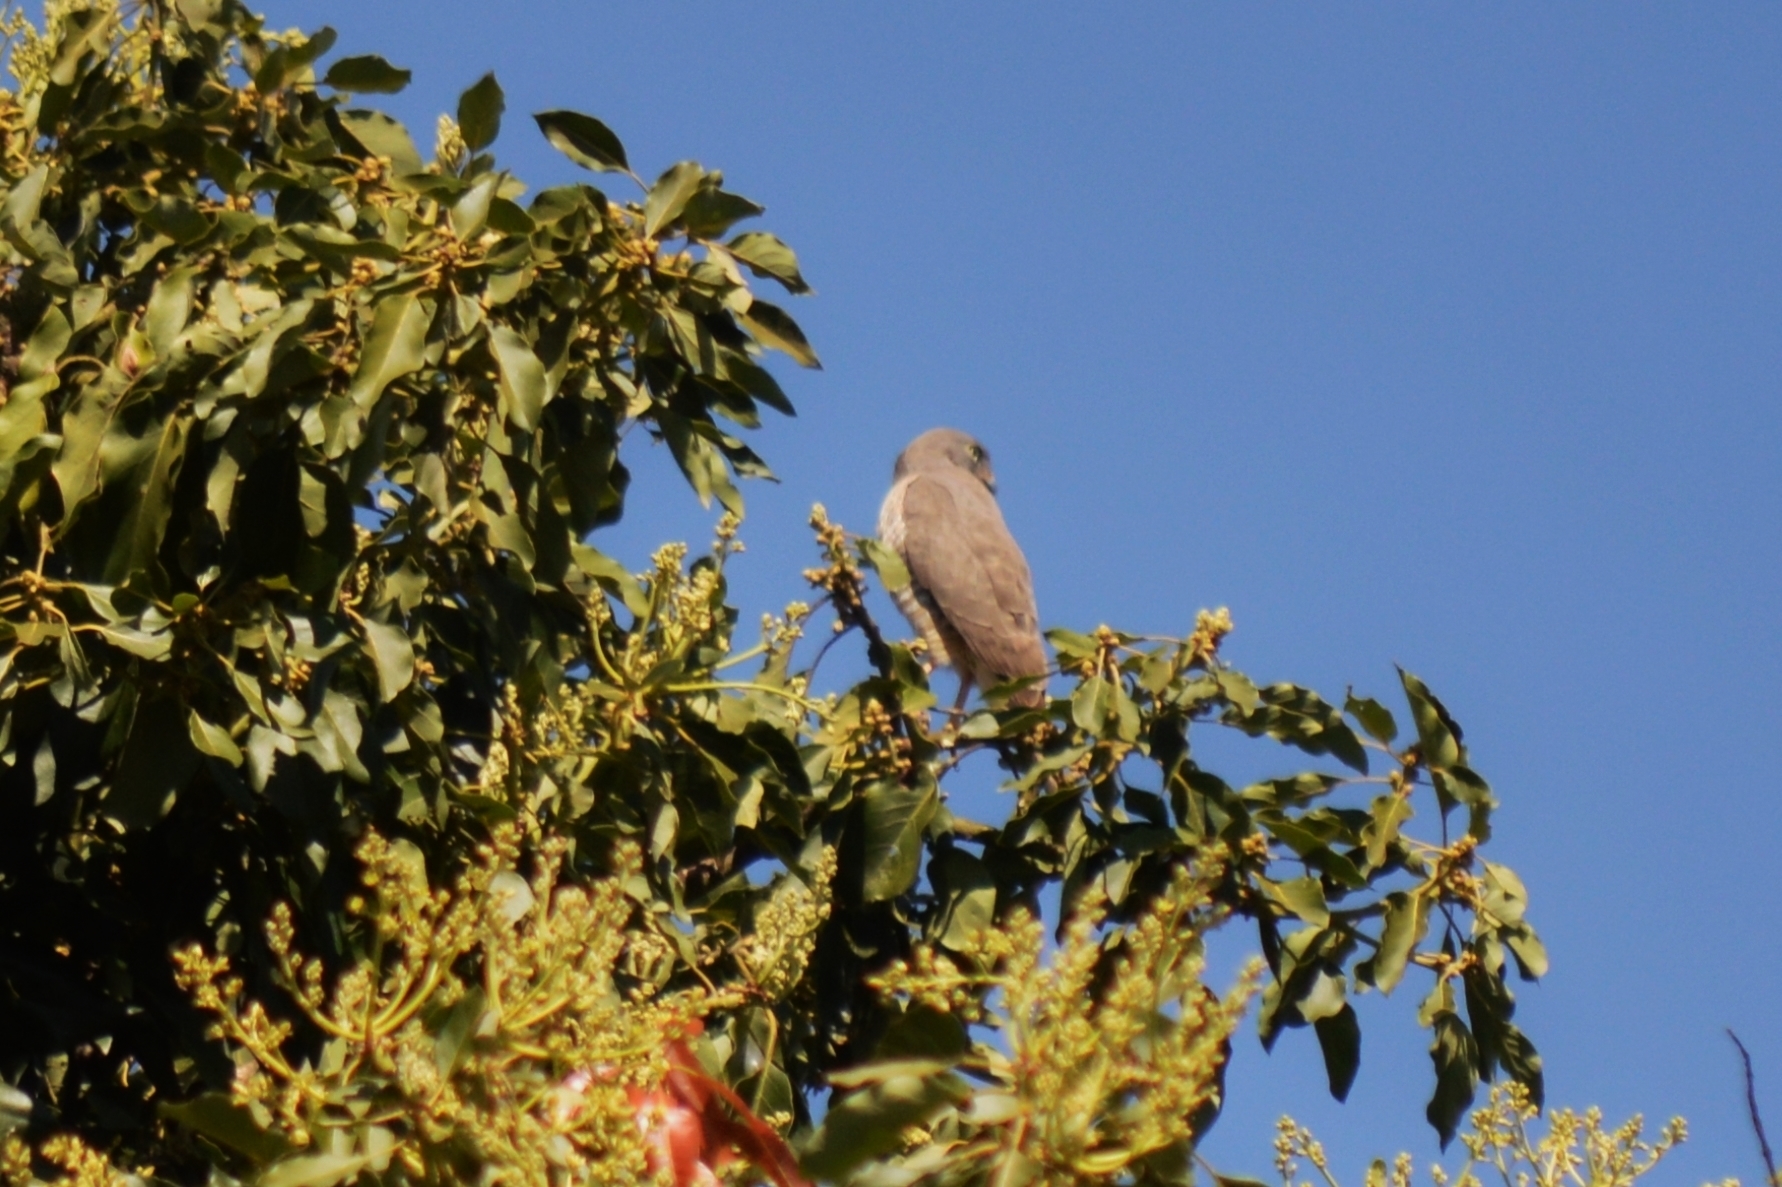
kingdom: Animalia
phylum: Chordata
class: Aves
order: Accipitriformes
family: Accipitridae
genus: Rupornis
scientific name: Rupornis magnirostris
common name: Roadside hawk
